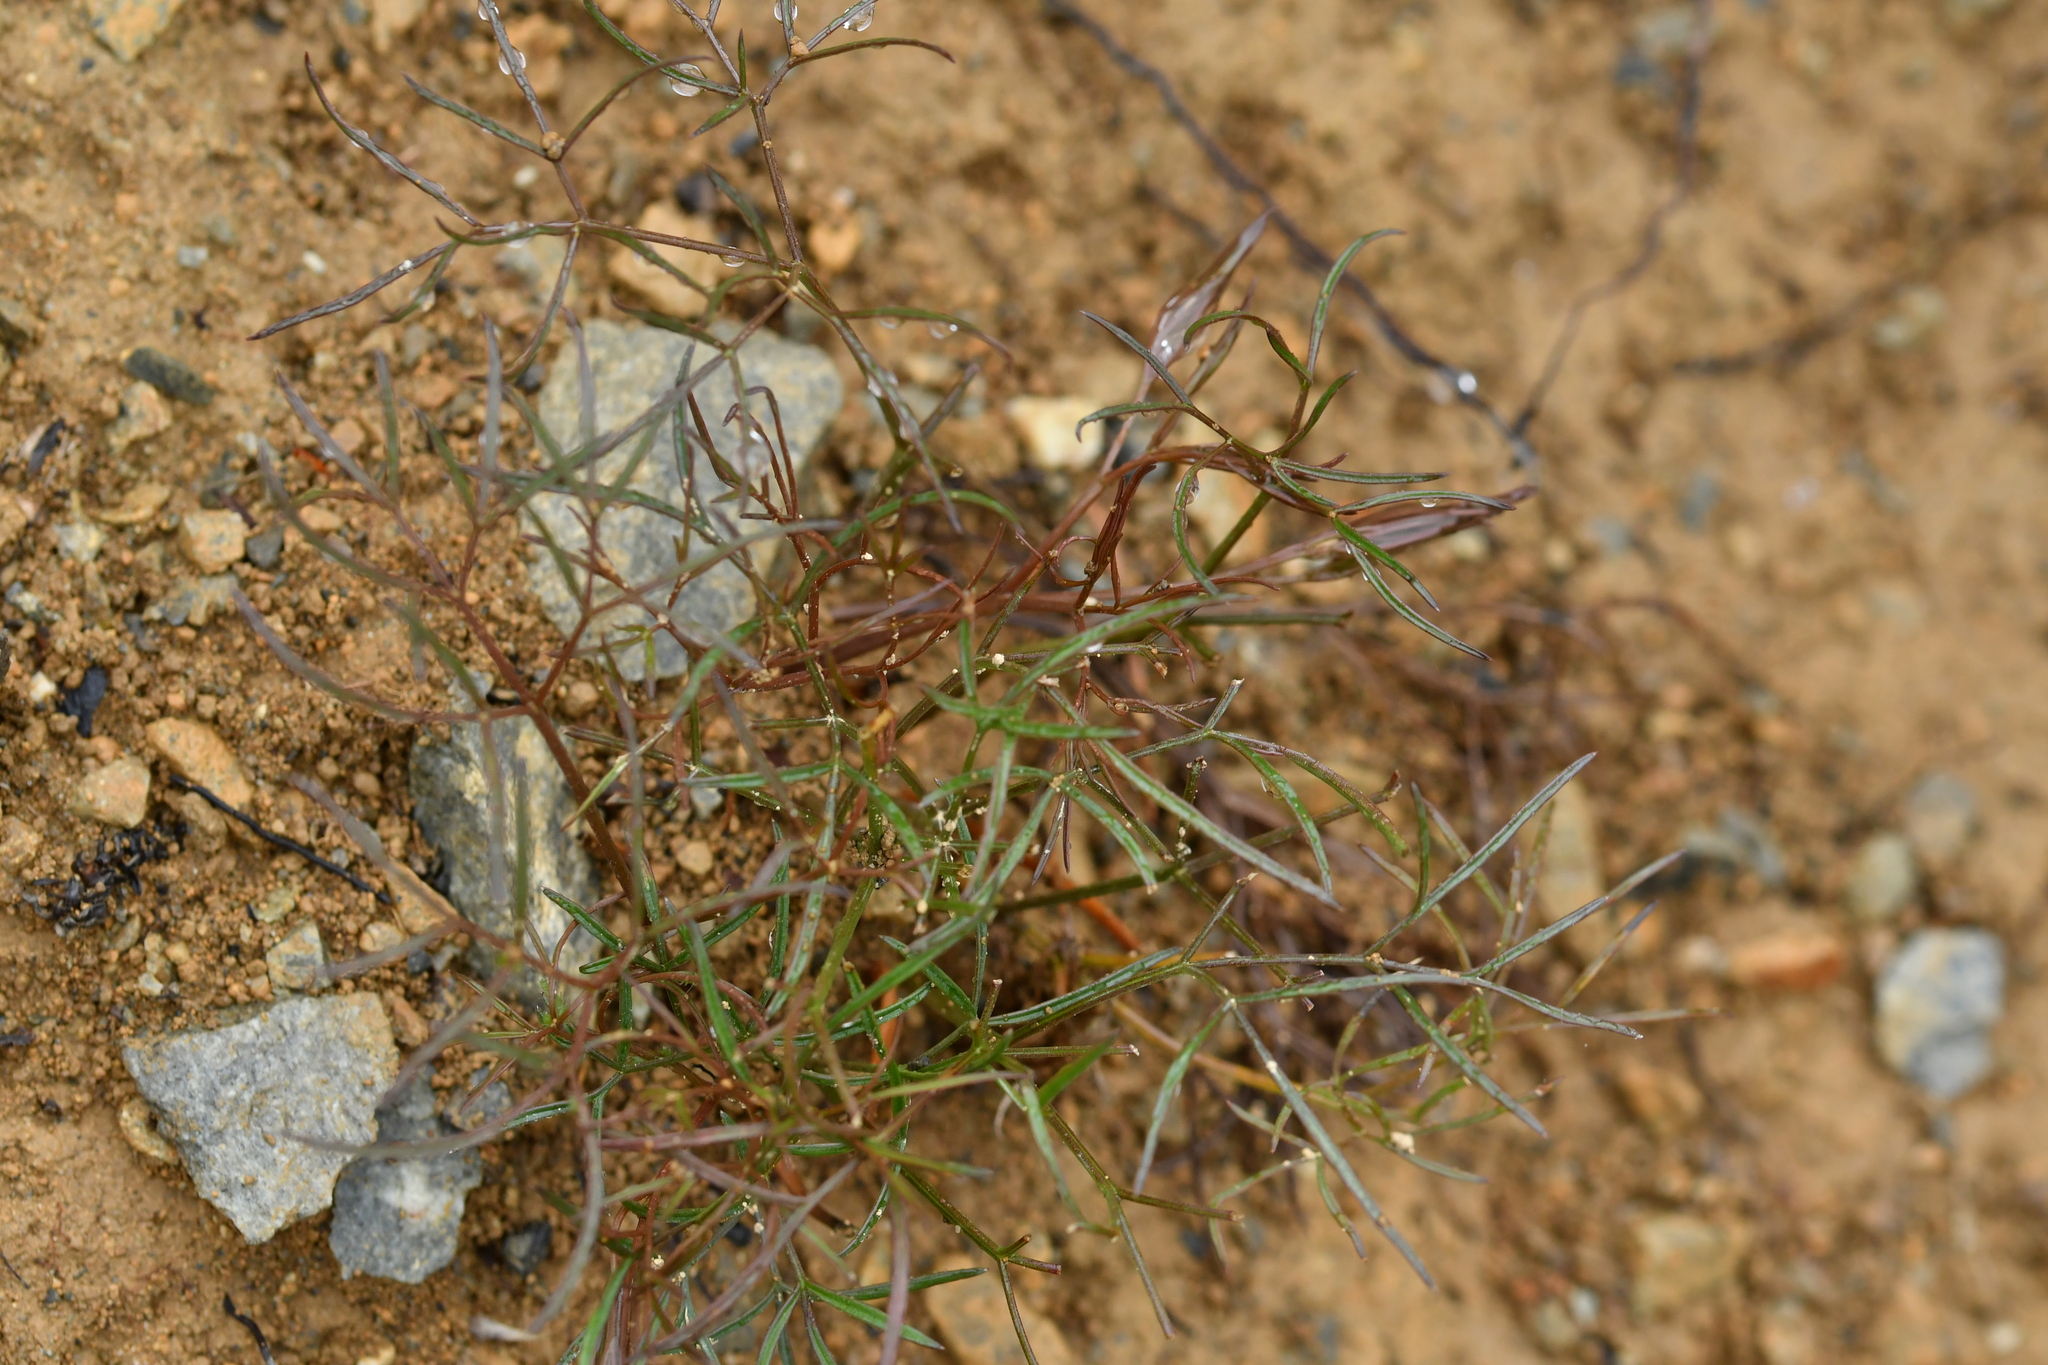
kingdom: Plantae
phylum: Tracheophyta
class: Magnoliopsida
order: Apiales
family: Apiaceae
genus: Anisotome
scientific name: Anisotome filifolia
